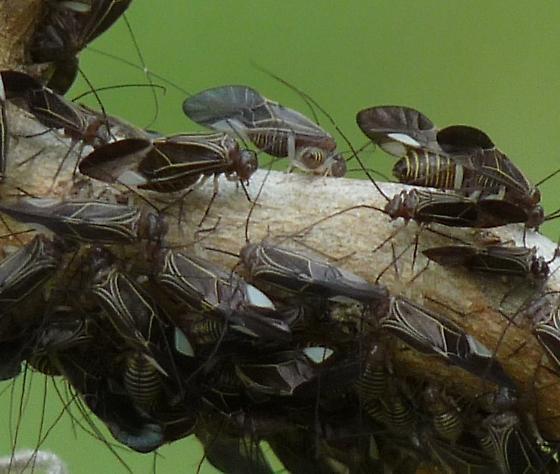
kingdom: Animalia
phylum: Arthropoda
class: Insecta
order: Psocodea
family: Psocidae
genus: Cerastipsocus
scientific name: Cerastipsocus venosus
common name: Tree cattle
